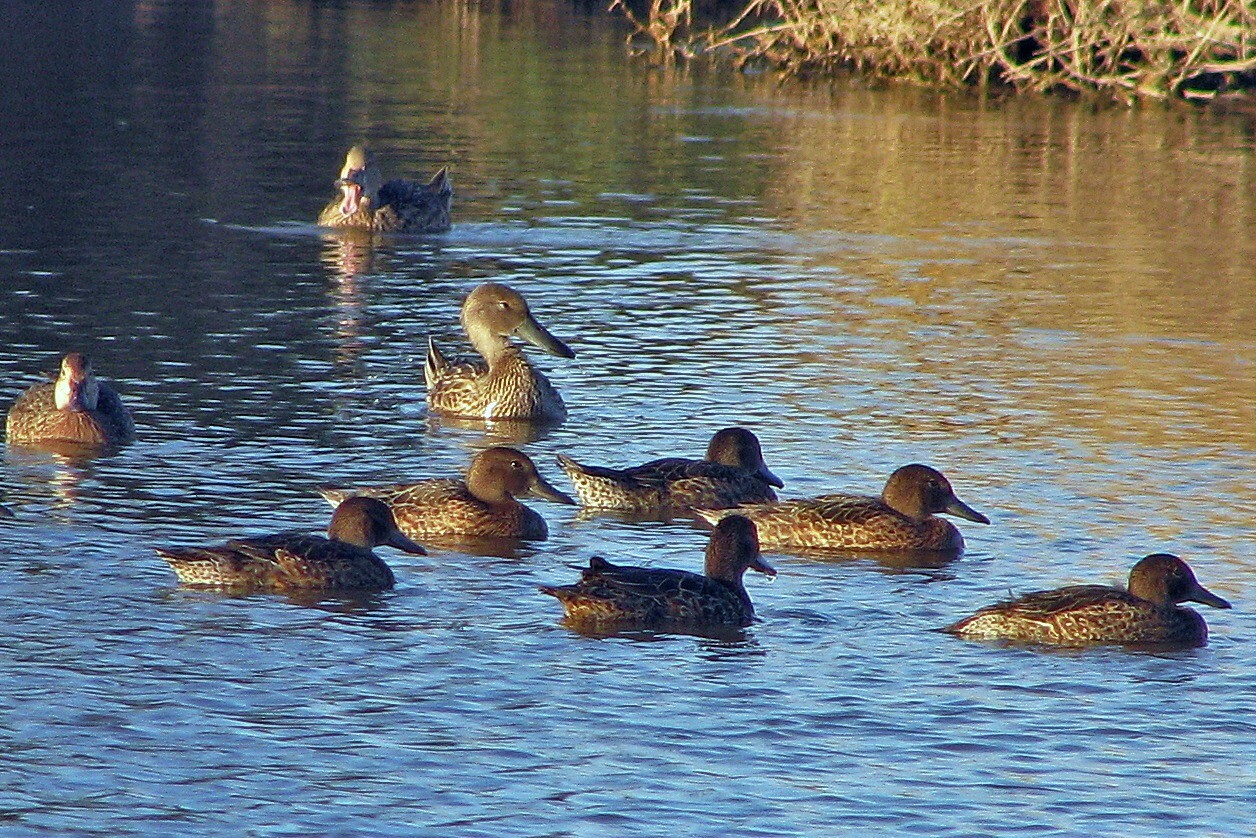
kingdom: Animalia
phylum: Chordata
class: Aves
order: Anseriformes
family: Anatidae
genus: Spatula
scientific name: Spatula cyanoptera
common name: Cinnamon teal
